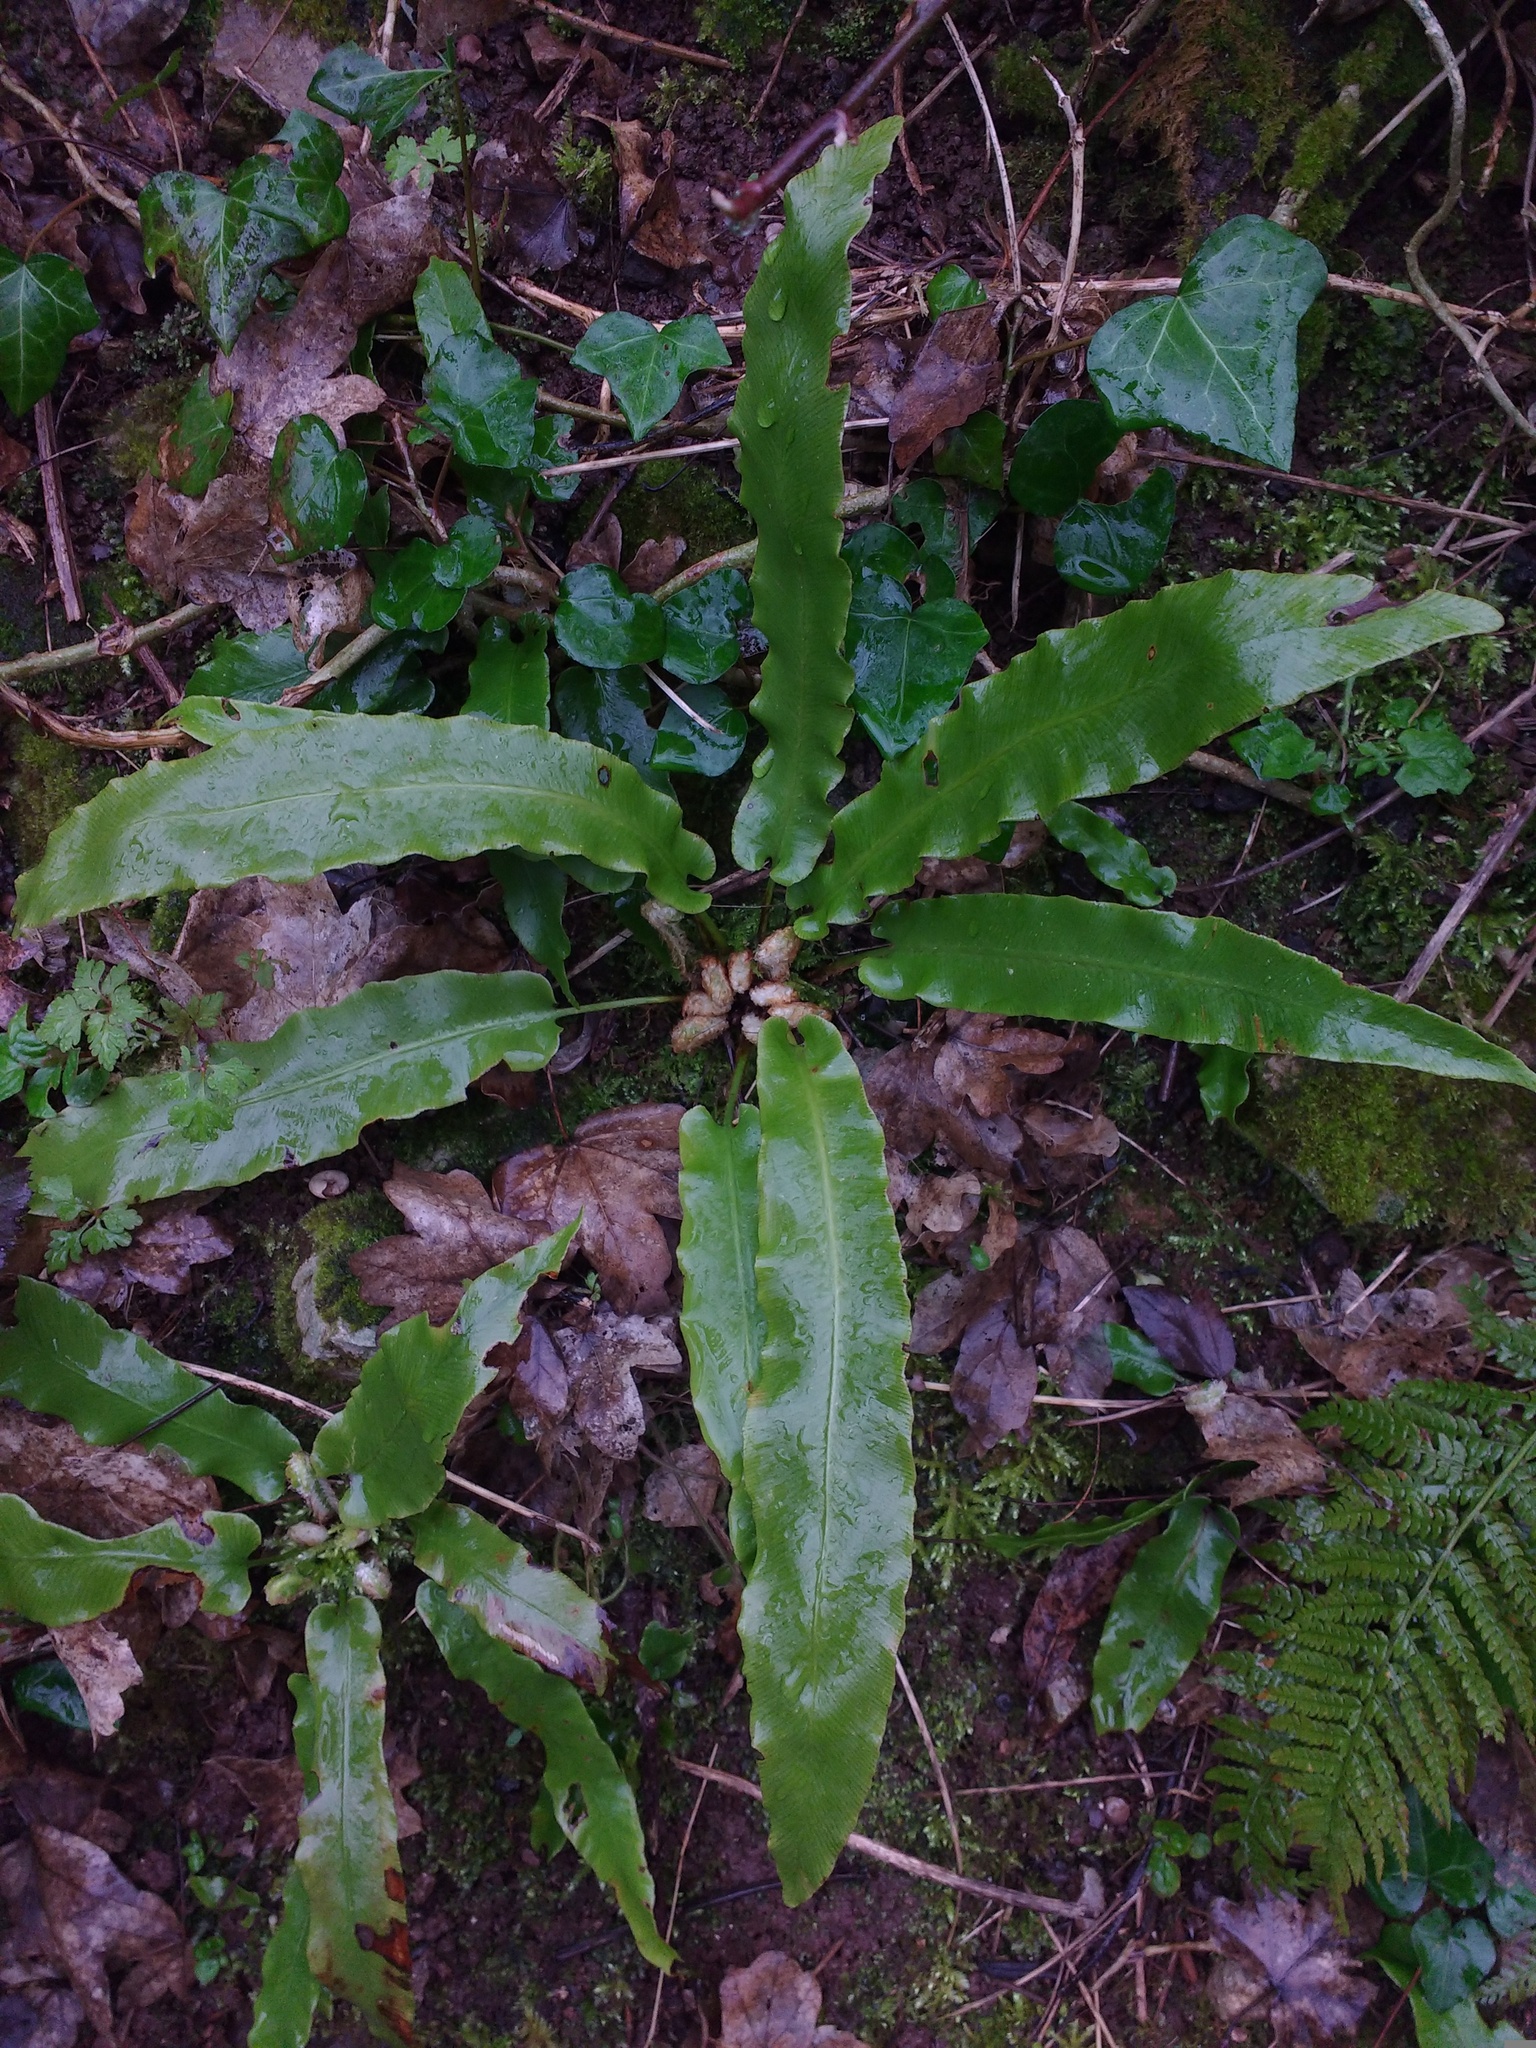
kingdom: Plantae
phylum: Tracheophyta
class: Polypodiopsida
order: Polypodiales
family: Aspleniaceae
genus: Asplenium
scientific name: Asplenium scolopendrium
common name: Hart's-tongue fern
